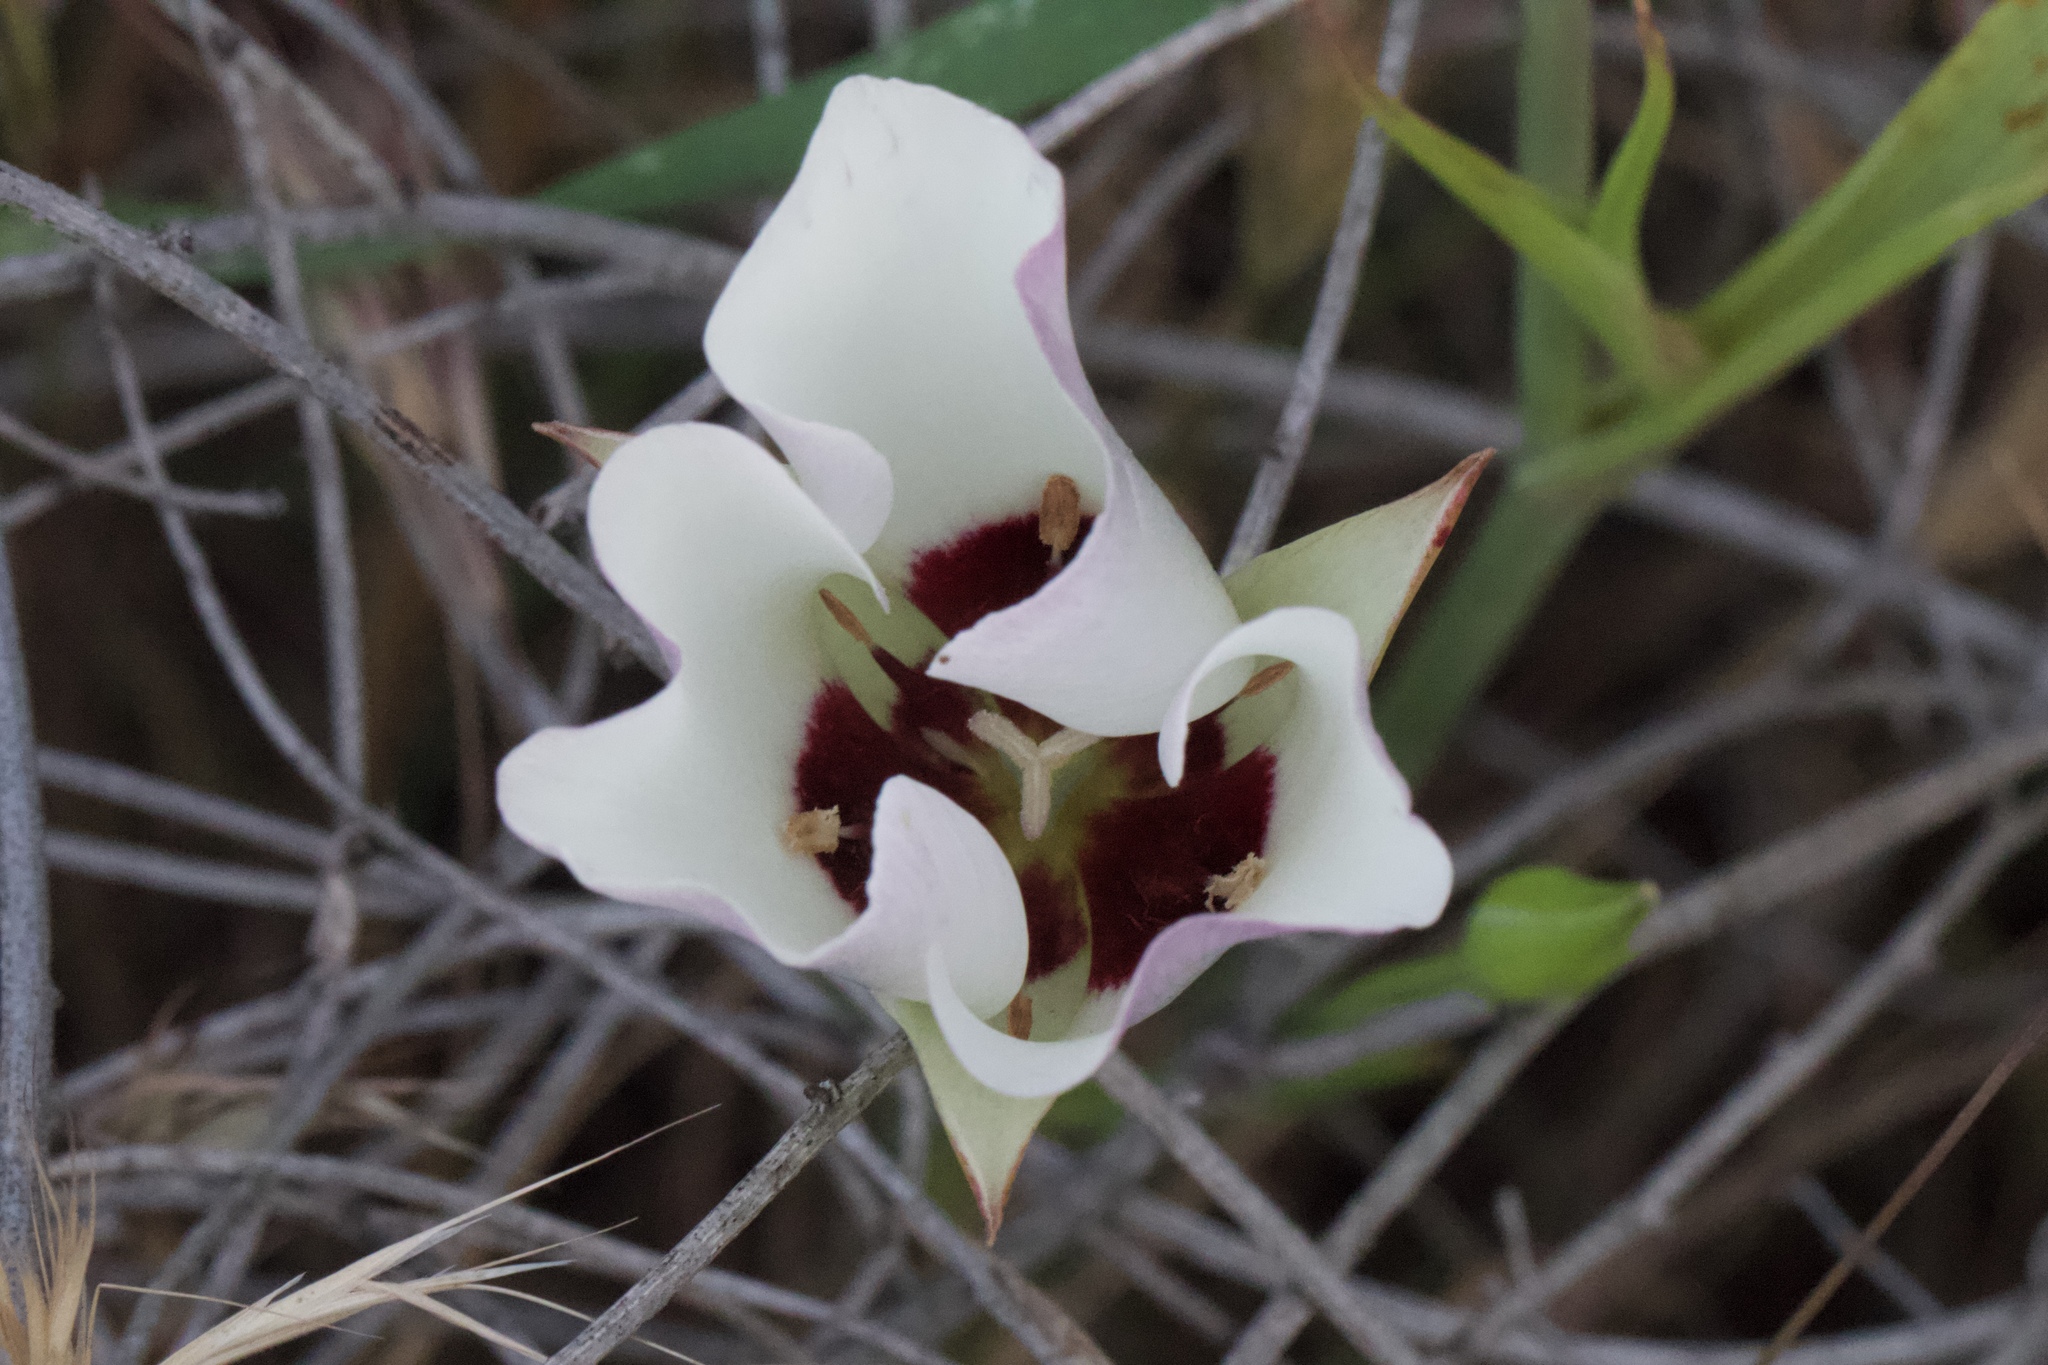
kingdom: Plantae
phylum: Tracheophyta
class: Liliopsida
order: Liliales
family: Liliaceae
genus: Calochortus
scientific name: Calochortus catalinae
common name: Catalina mariposa-lily
